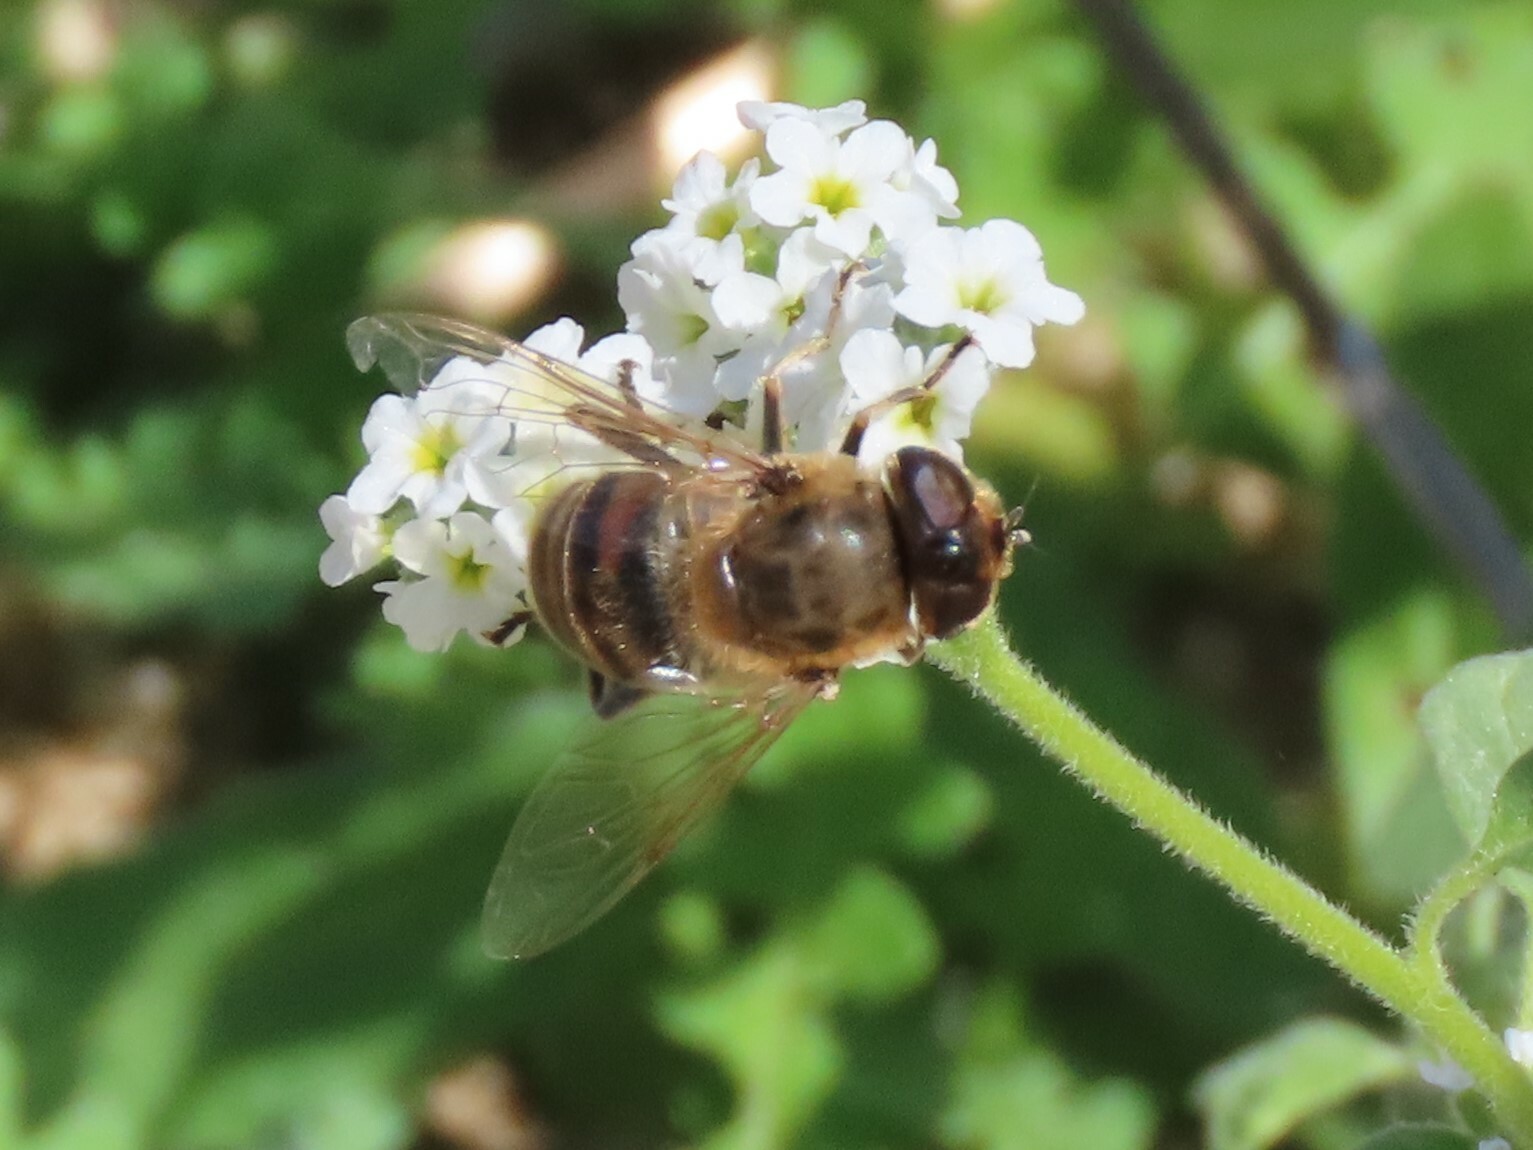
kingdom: Animalia
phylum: Arthropoda
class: Insecta
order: Diptera
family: Syrphidae
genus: Eristalis
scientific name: Eristalis tenax
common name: Drone fly
